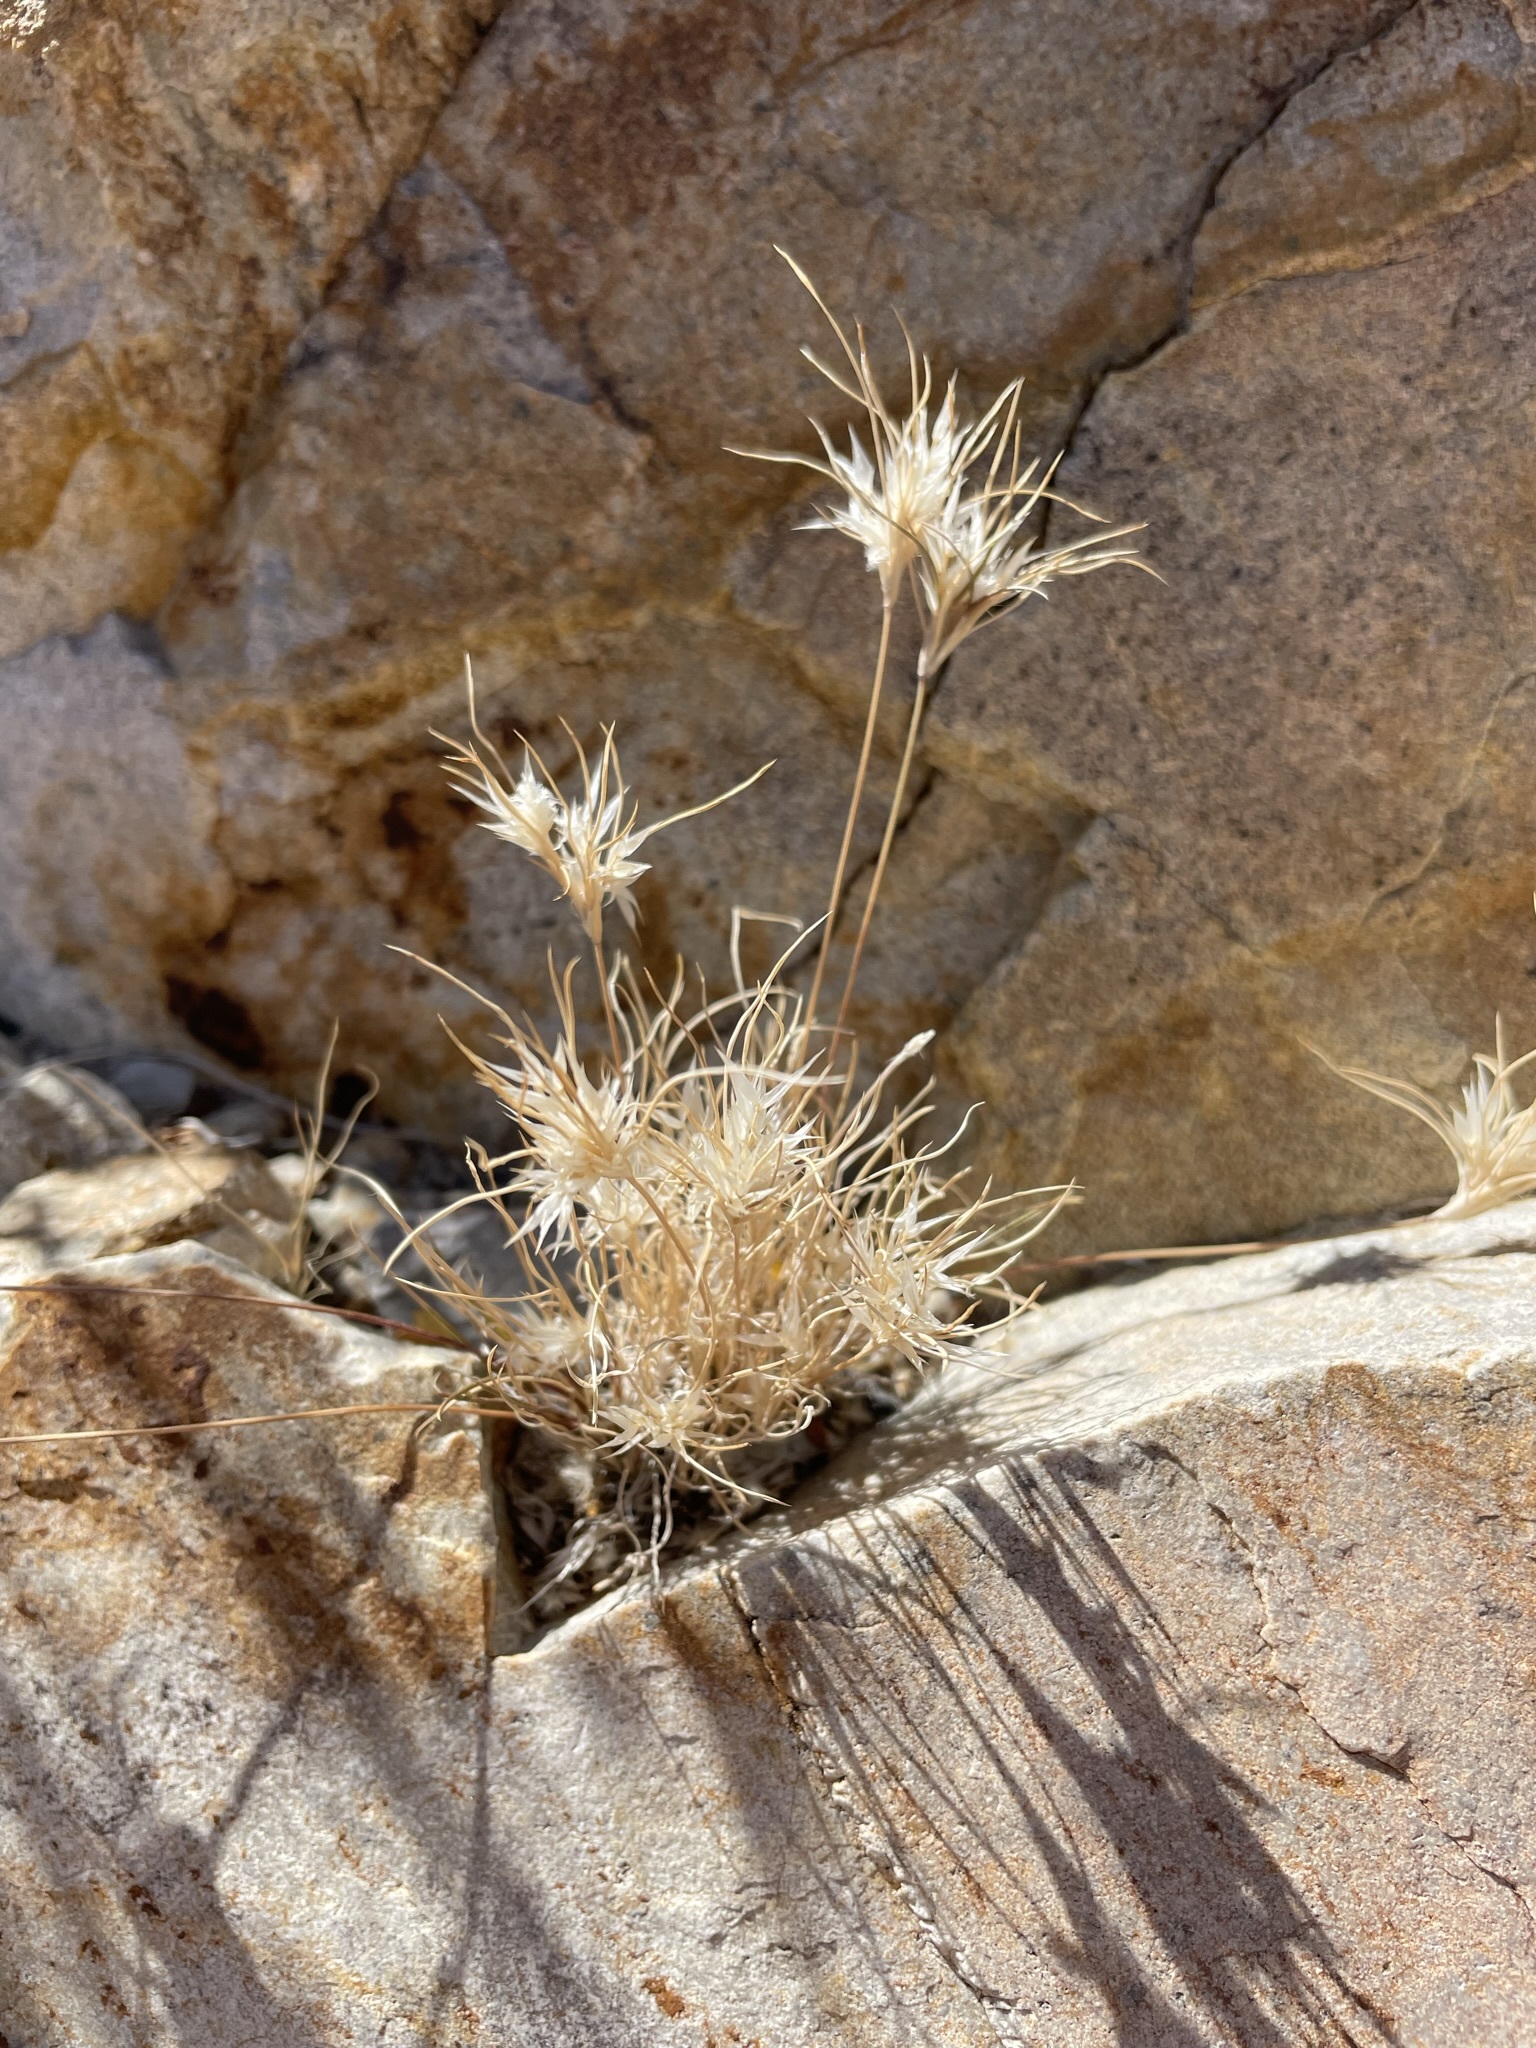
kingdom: Plantae
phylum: Tracheophyta
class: Liliopsida
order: Poales
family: Poaceae
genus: Dasyochloa
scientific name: Dasyochloa pulchella
